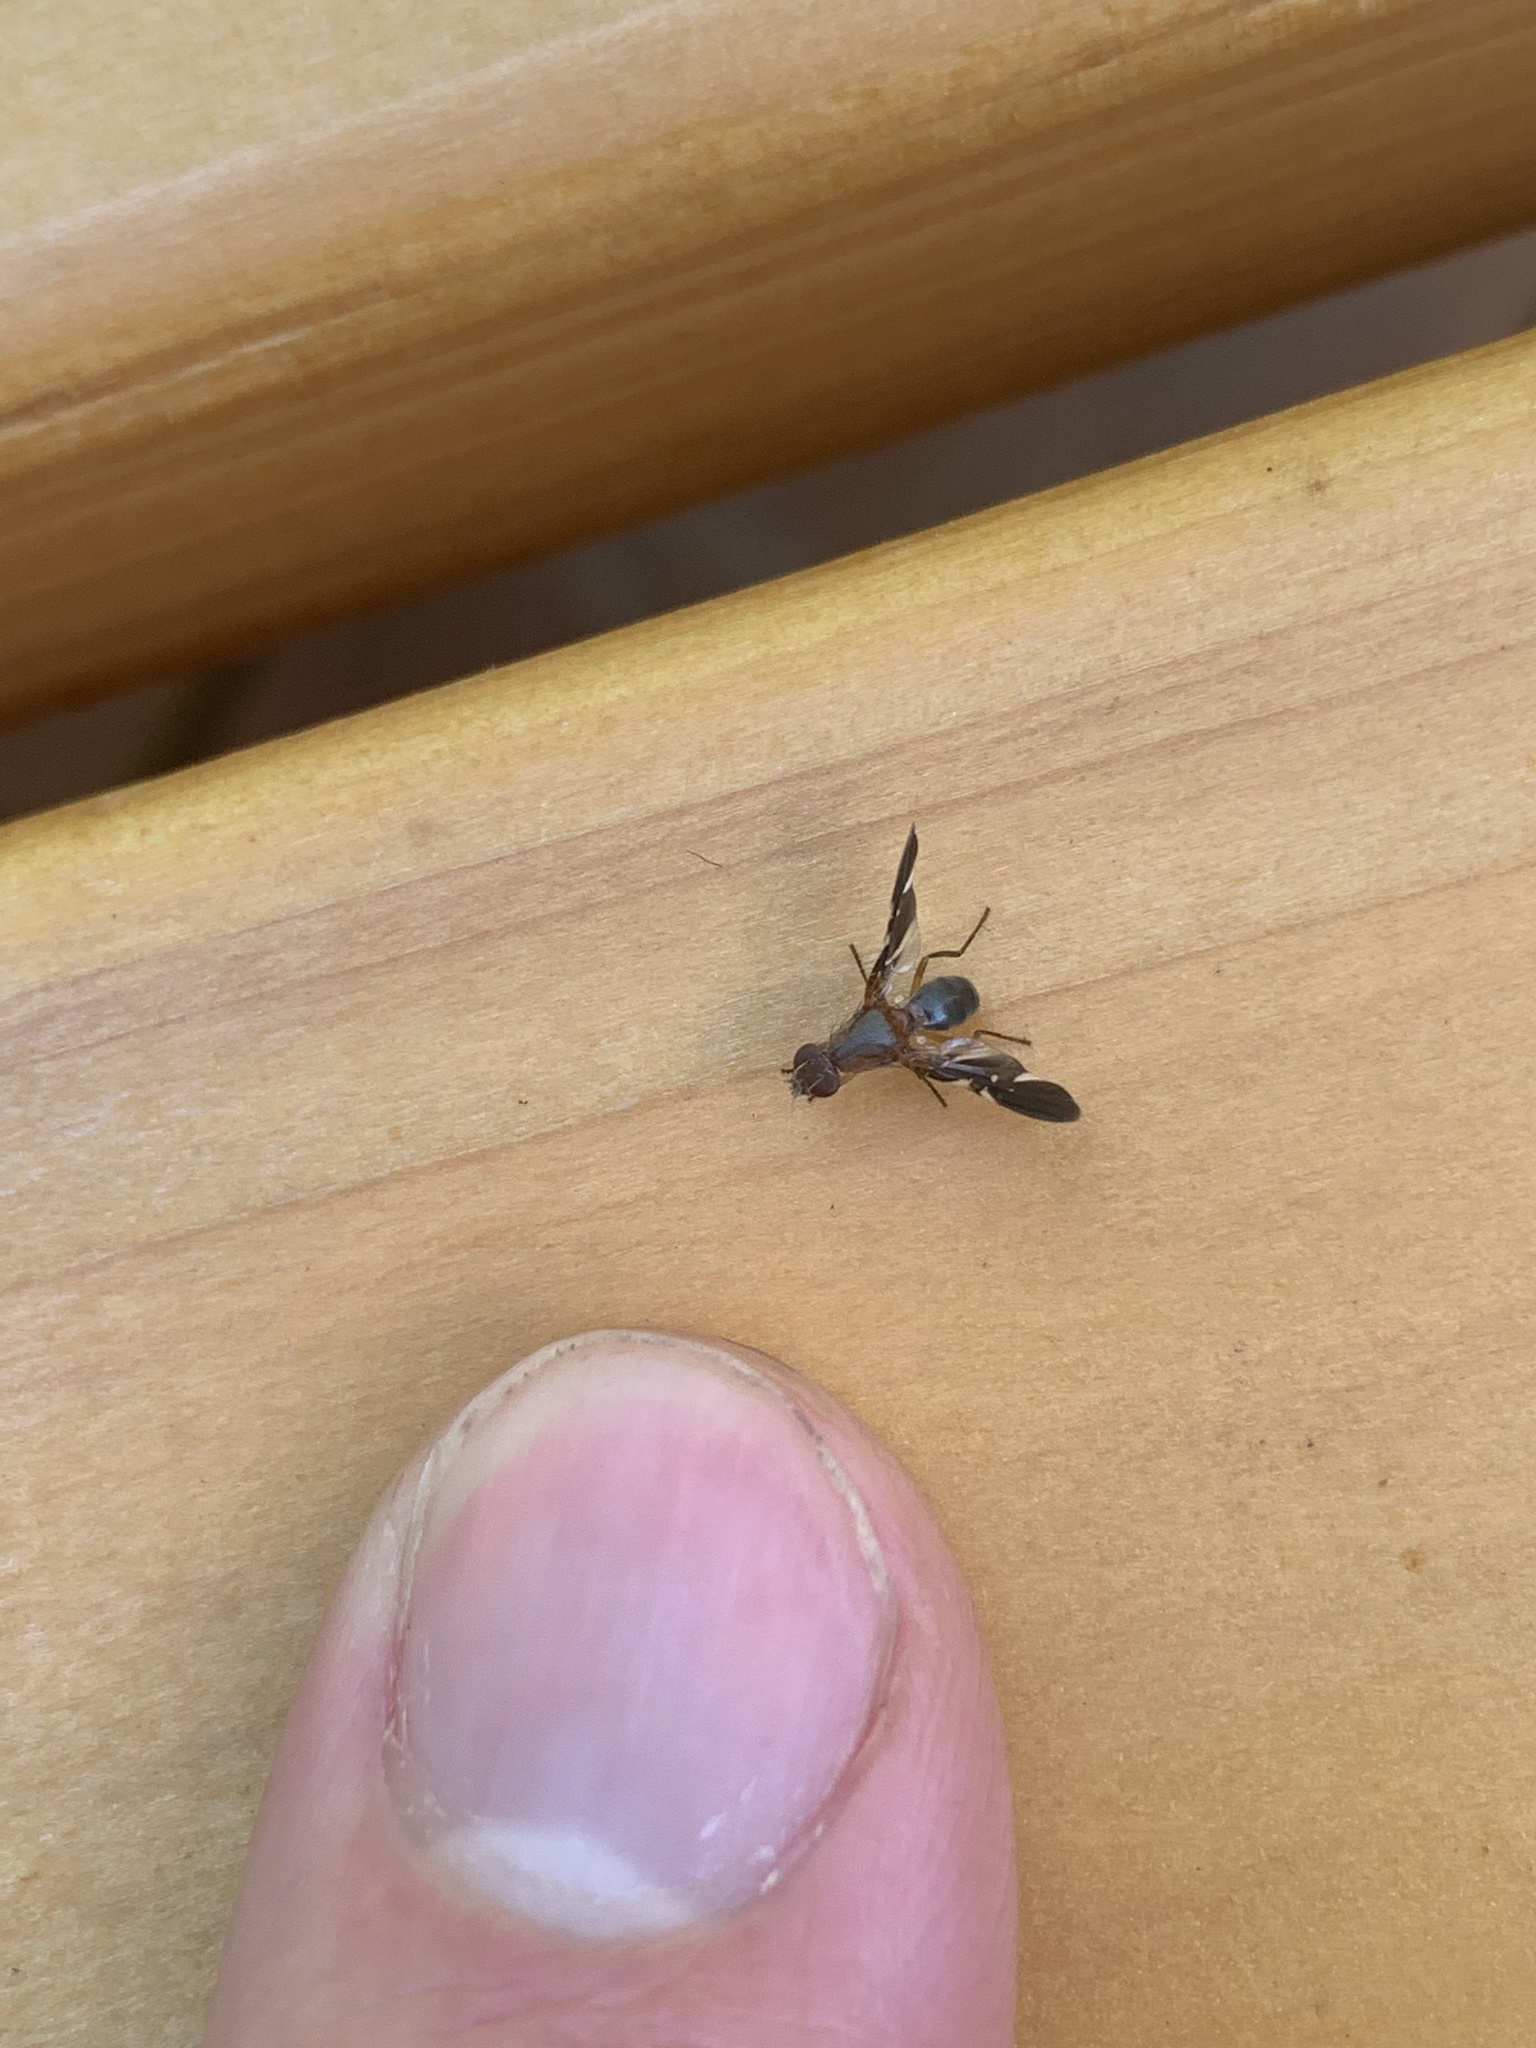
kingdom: Animalia
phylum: Arthropoda
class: Insecta
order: Diptera
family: Ulidiidae
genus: Delphinia
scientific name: Delphinia picta
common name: Common picture-winged fly
